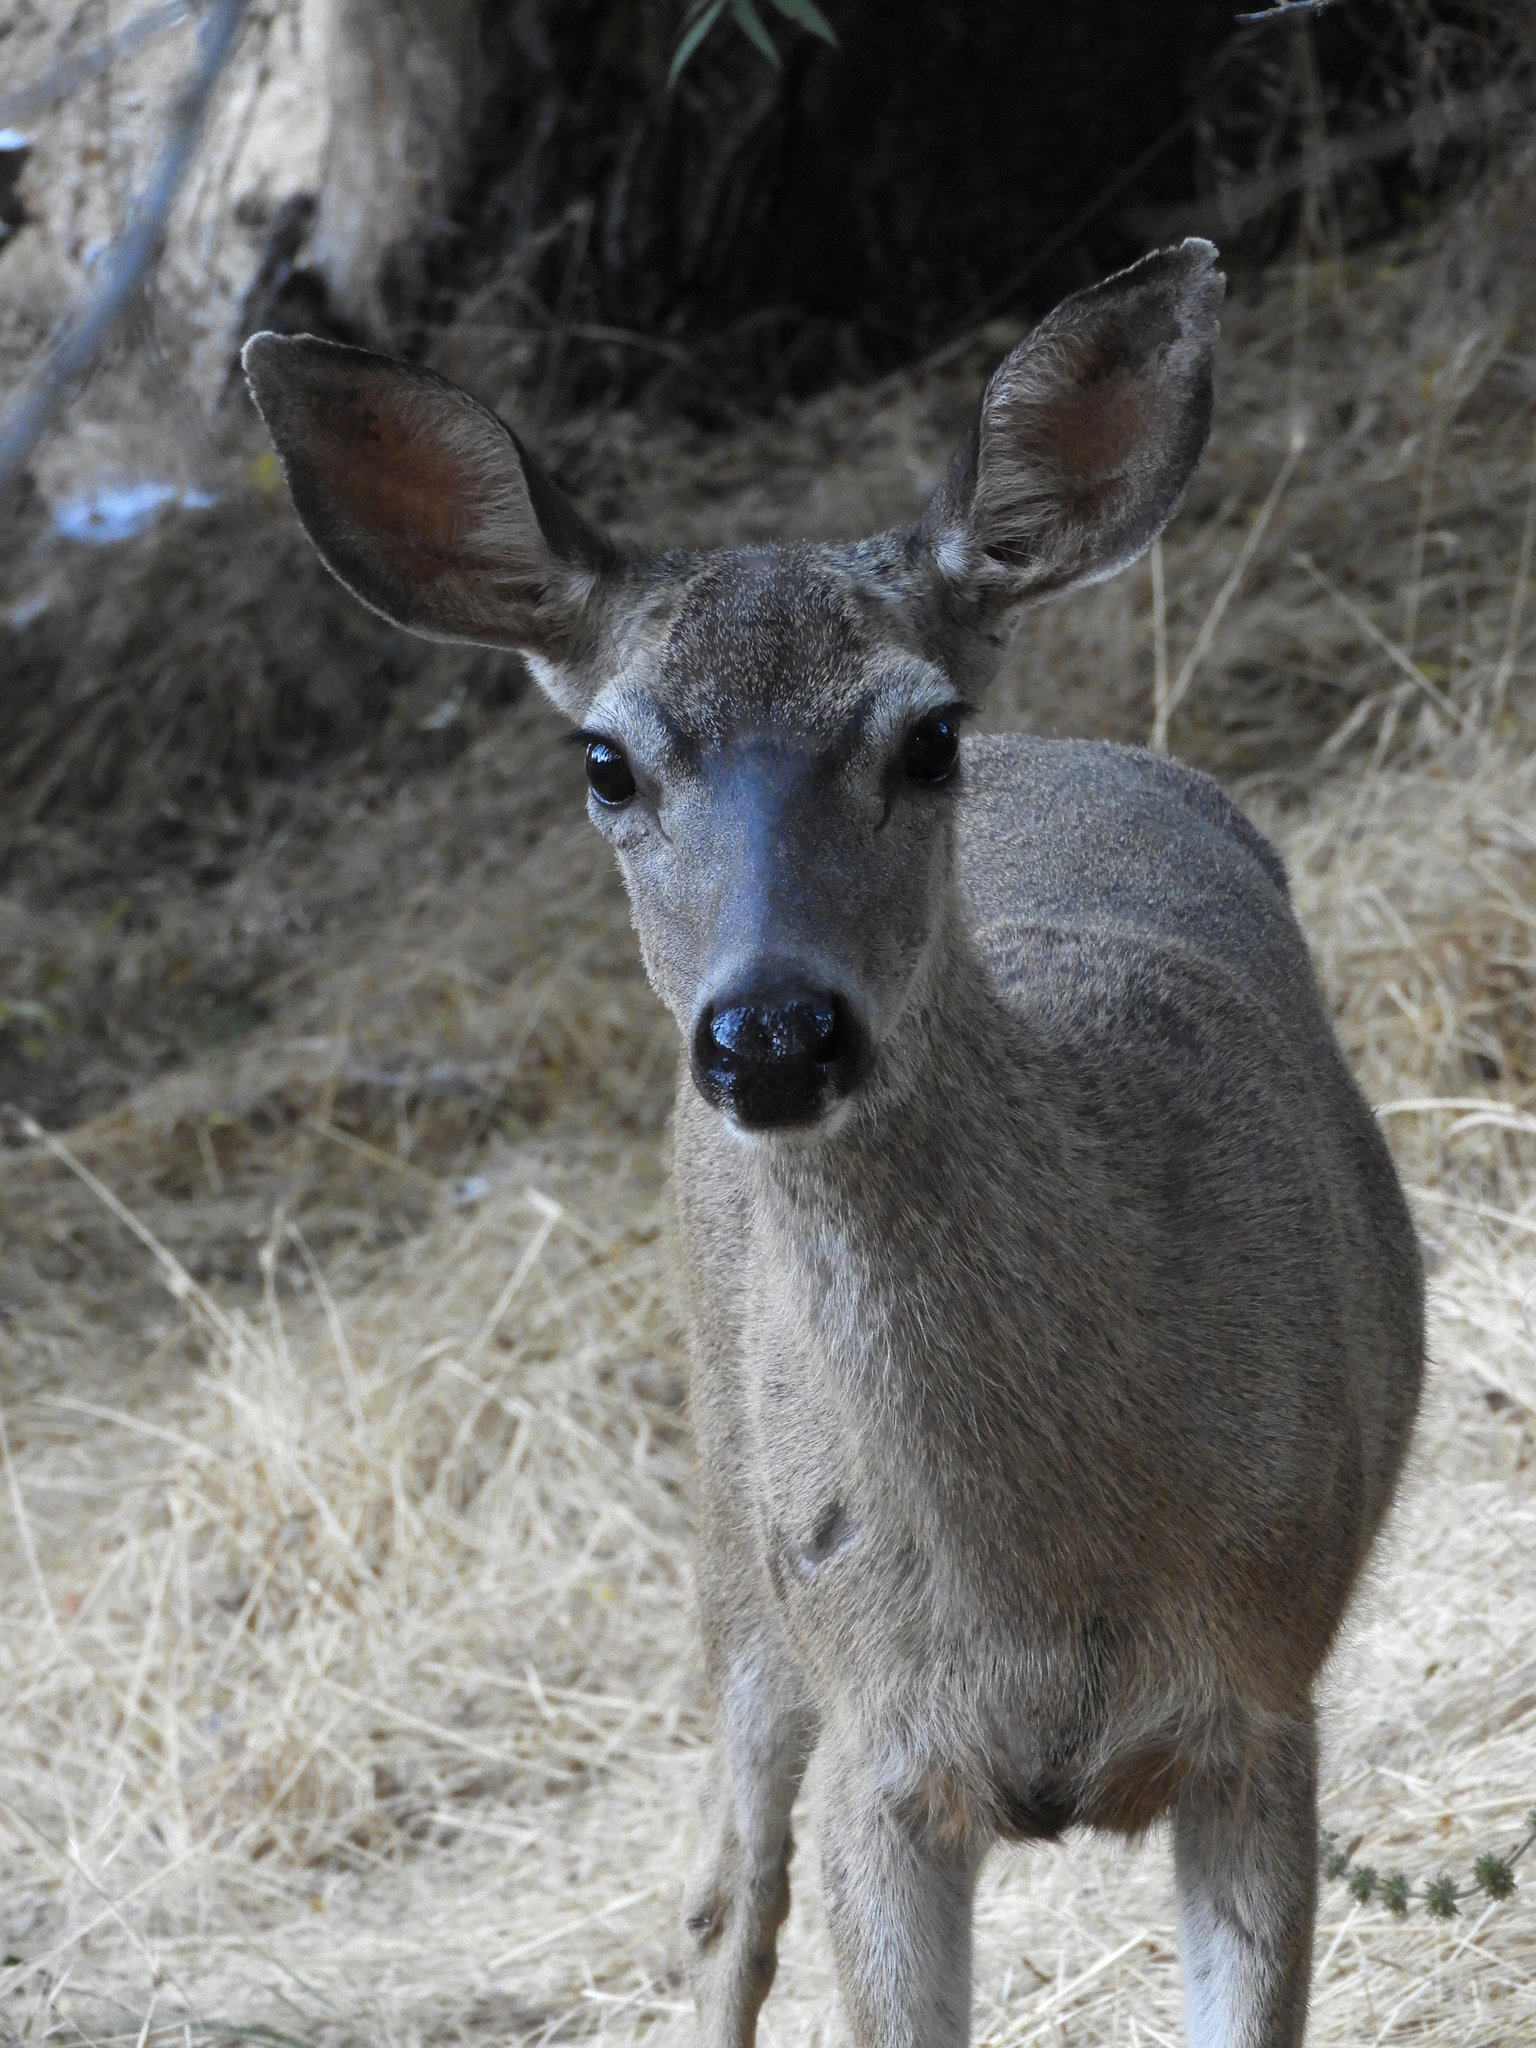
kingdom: Animalia
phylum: Chordata
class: Mammalia
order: Artiodactyla
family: Cervidae
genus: Odocoileus
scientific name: Odocoileus hemionus
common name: Mule deer
